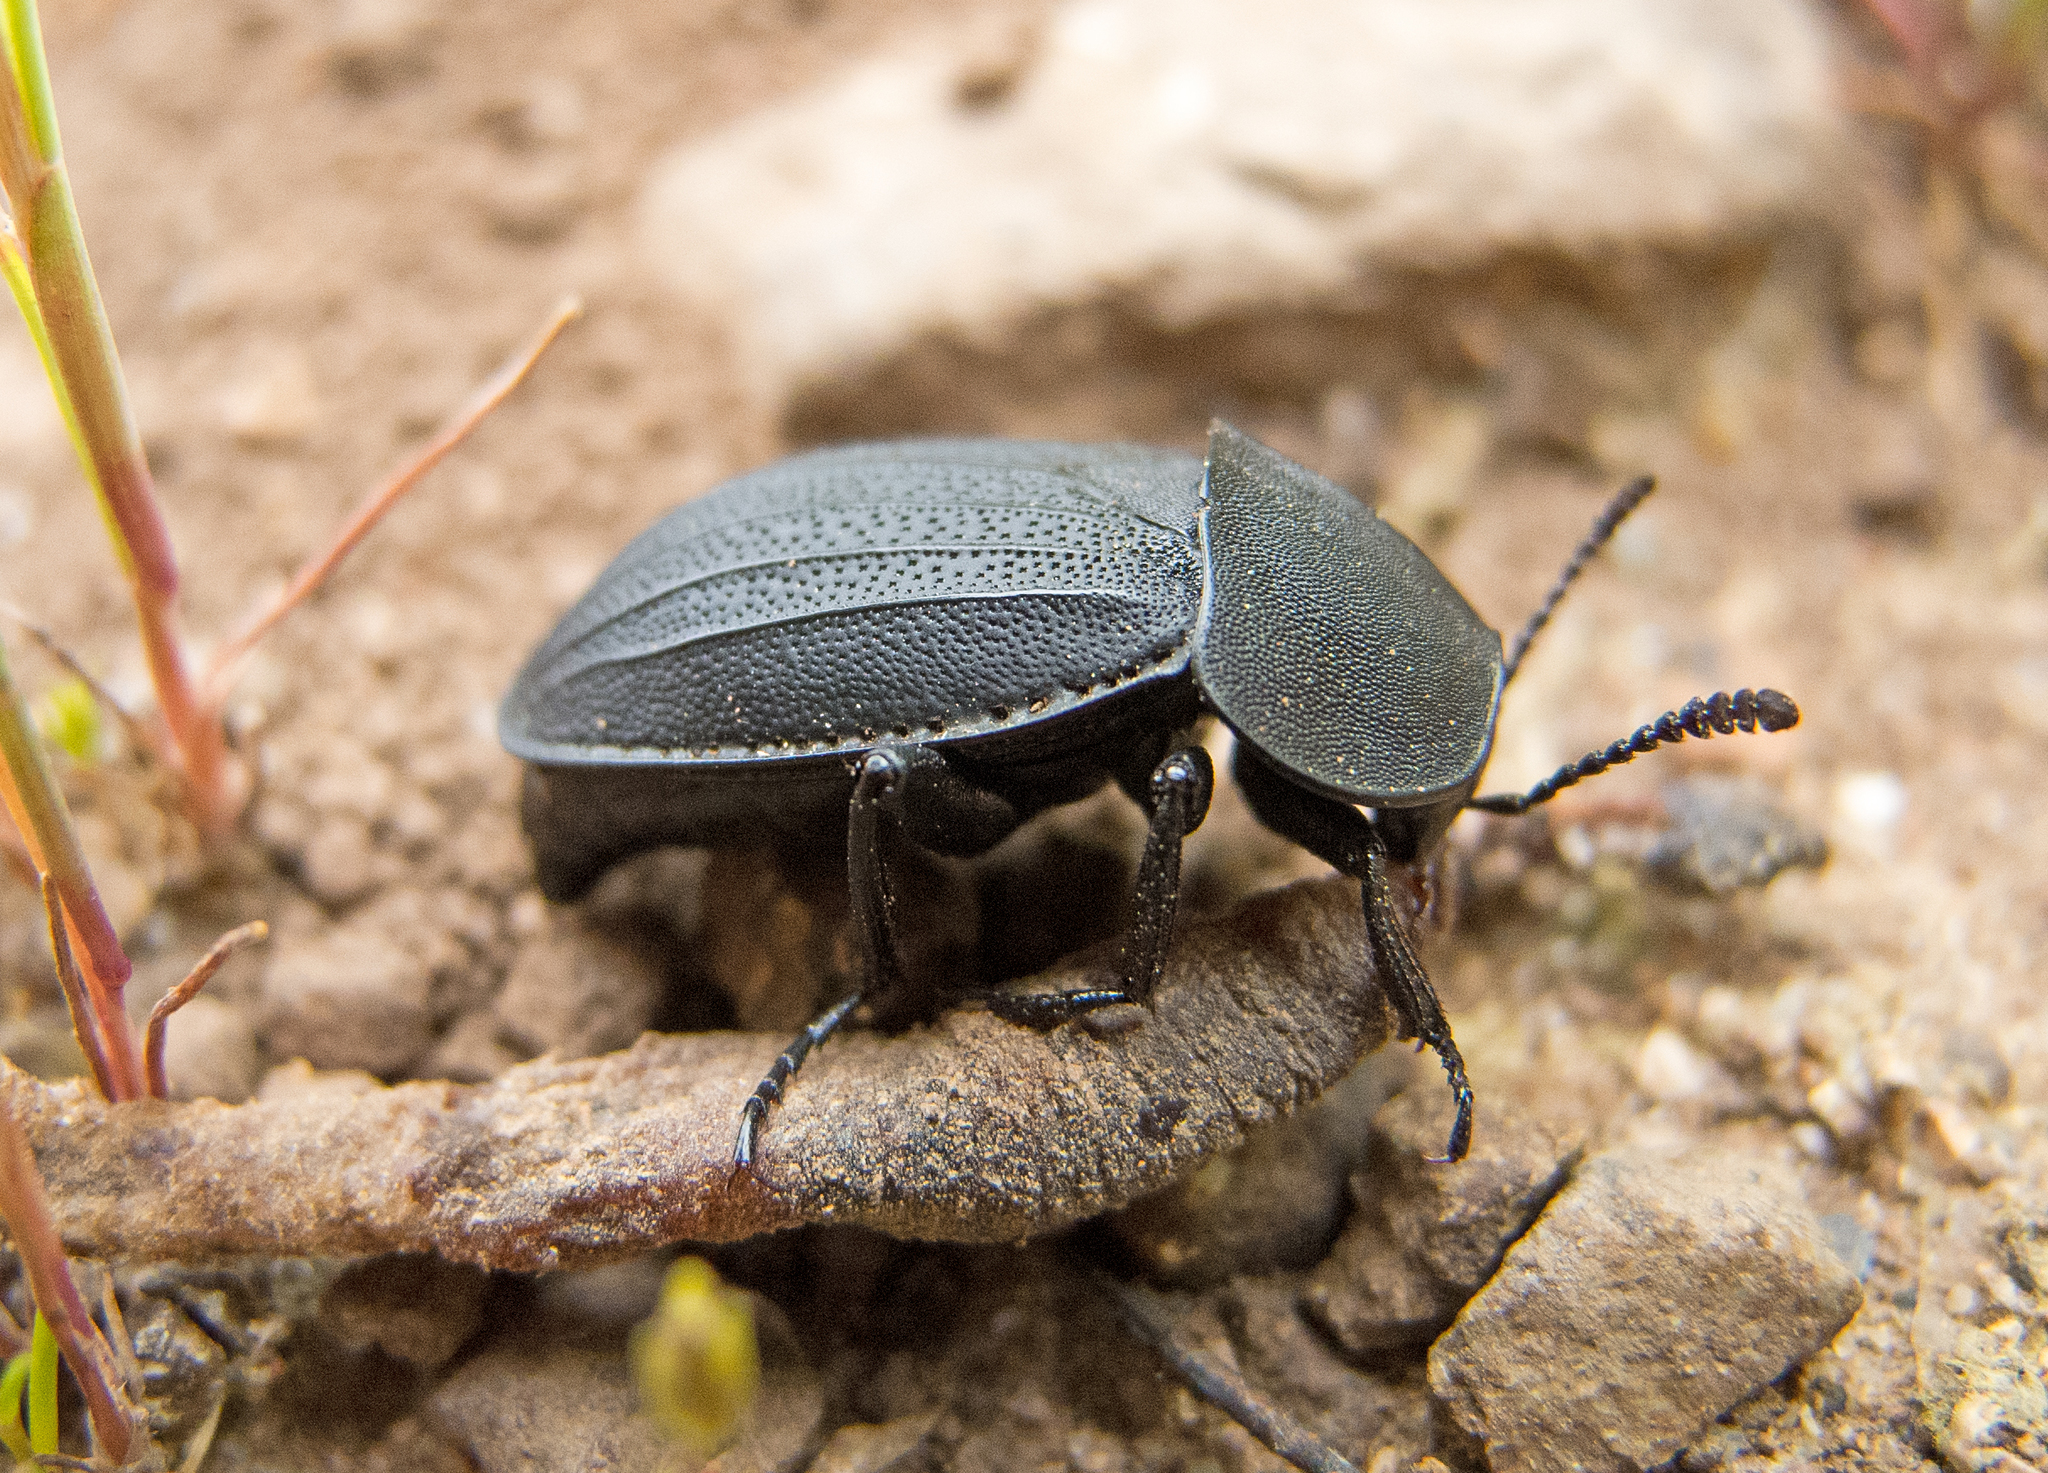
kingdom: Animalia
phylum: Arthropoda
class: Insecta
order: Coleoptera
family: Staphylinidae
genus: Silpha
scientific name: Silpha obscura
